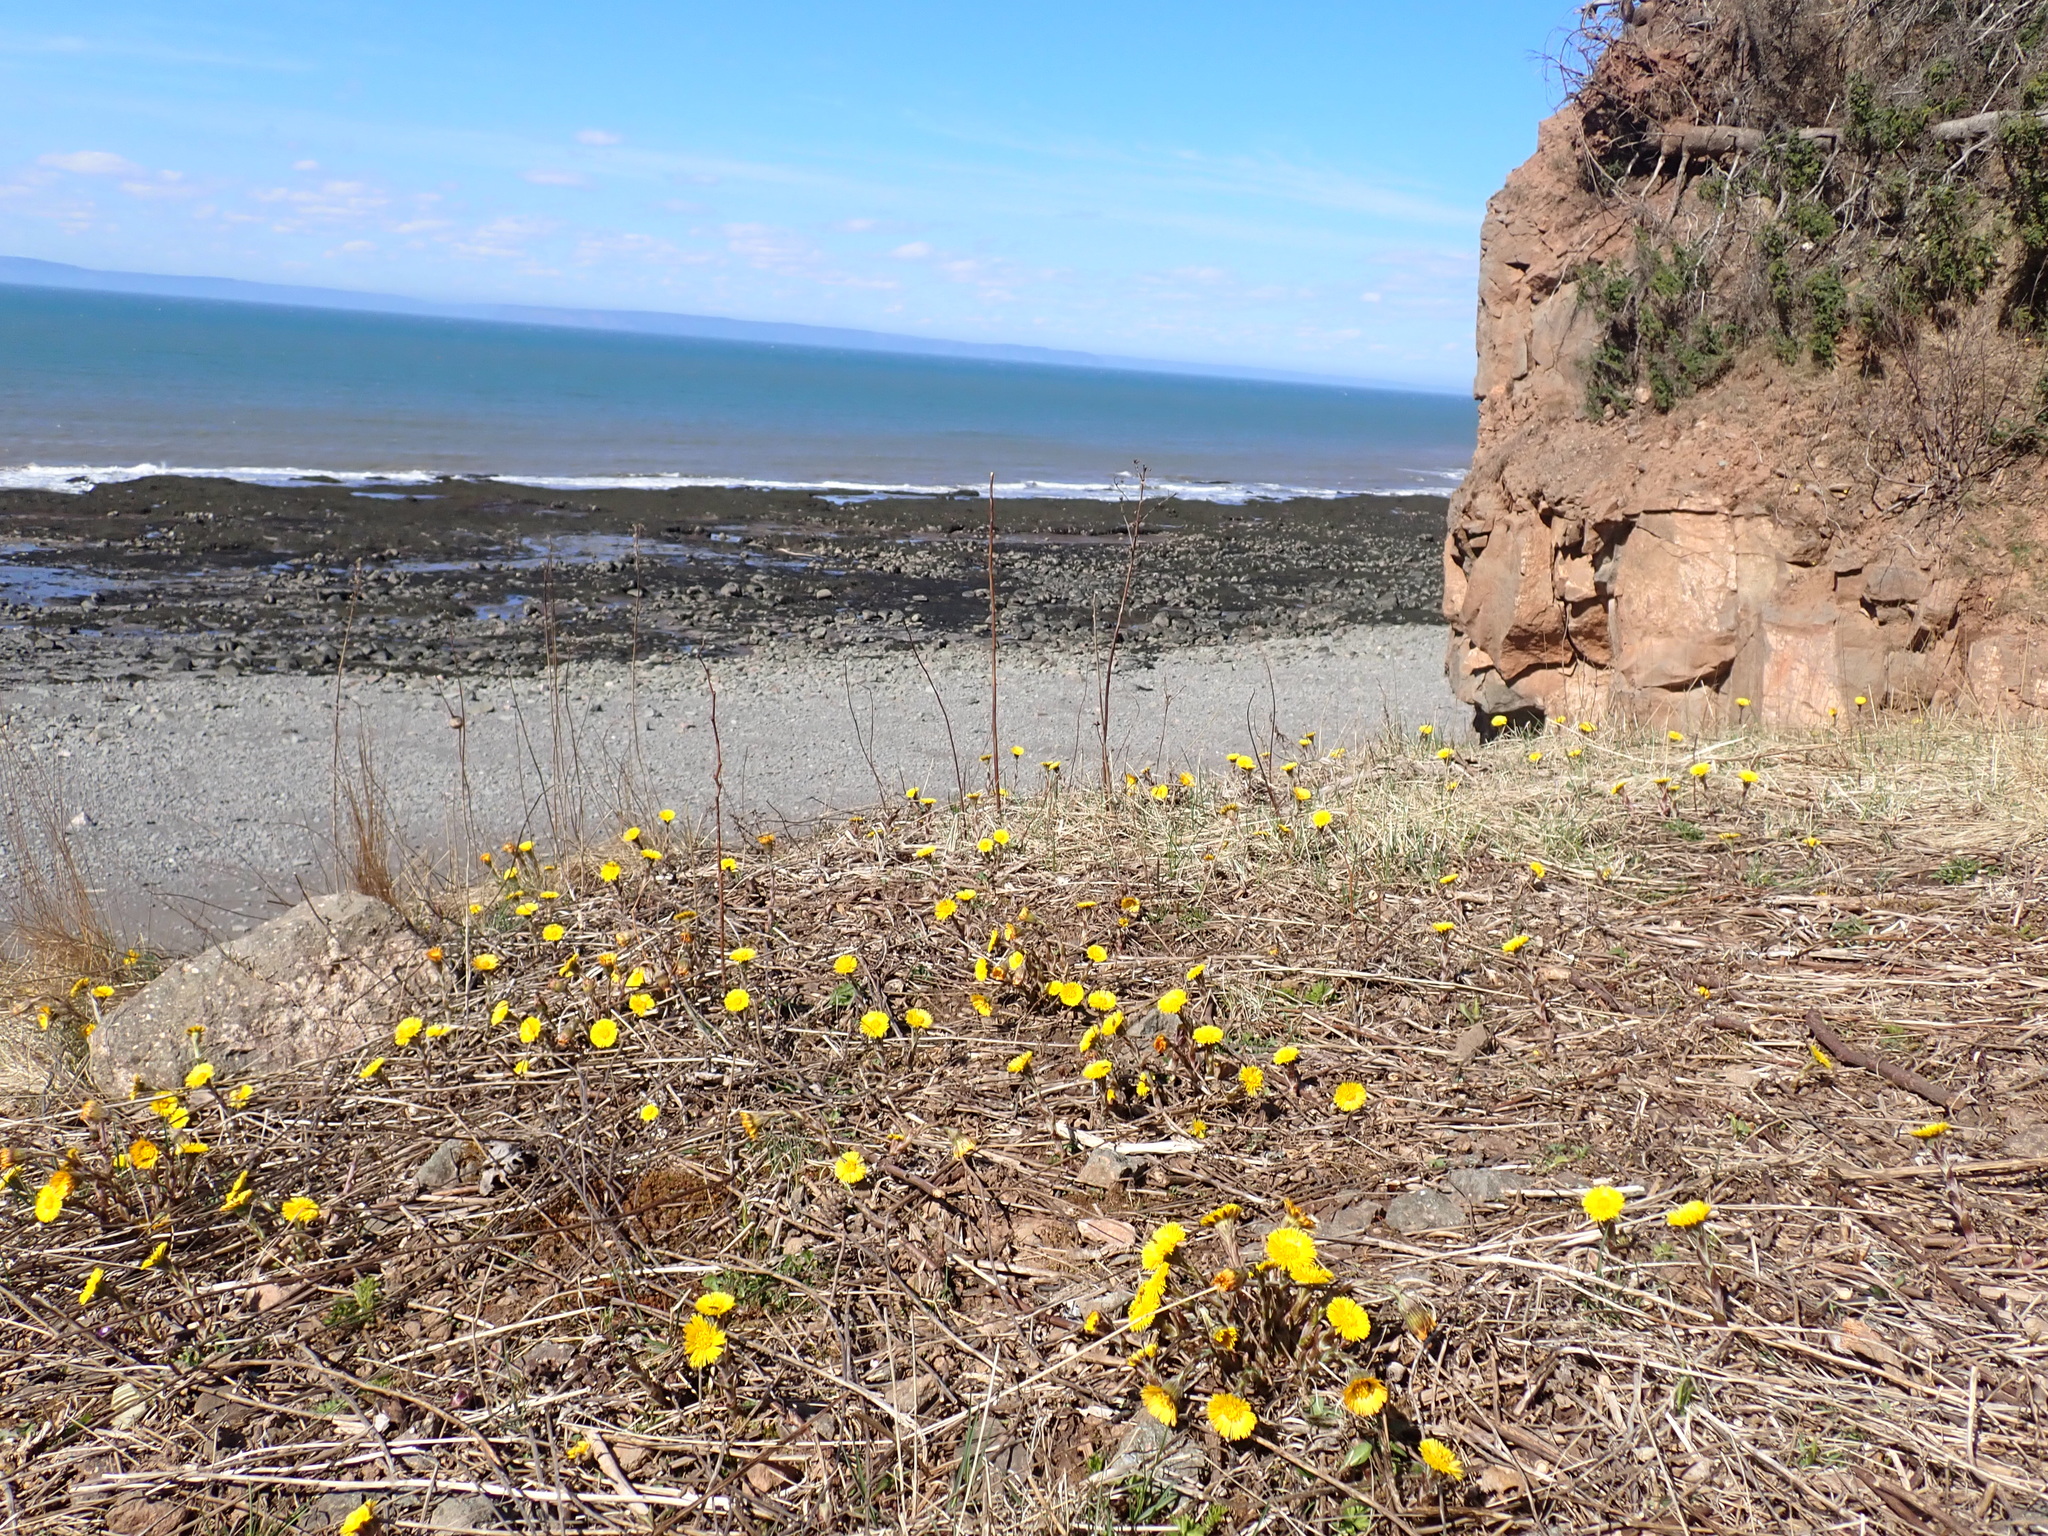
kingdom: Plantae
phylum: Tracheophyta
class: Magnoliopsida
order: Asterales
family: Asteraceae
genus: Tussilago
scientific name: Tussilago farfara
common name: Coltsfoot
